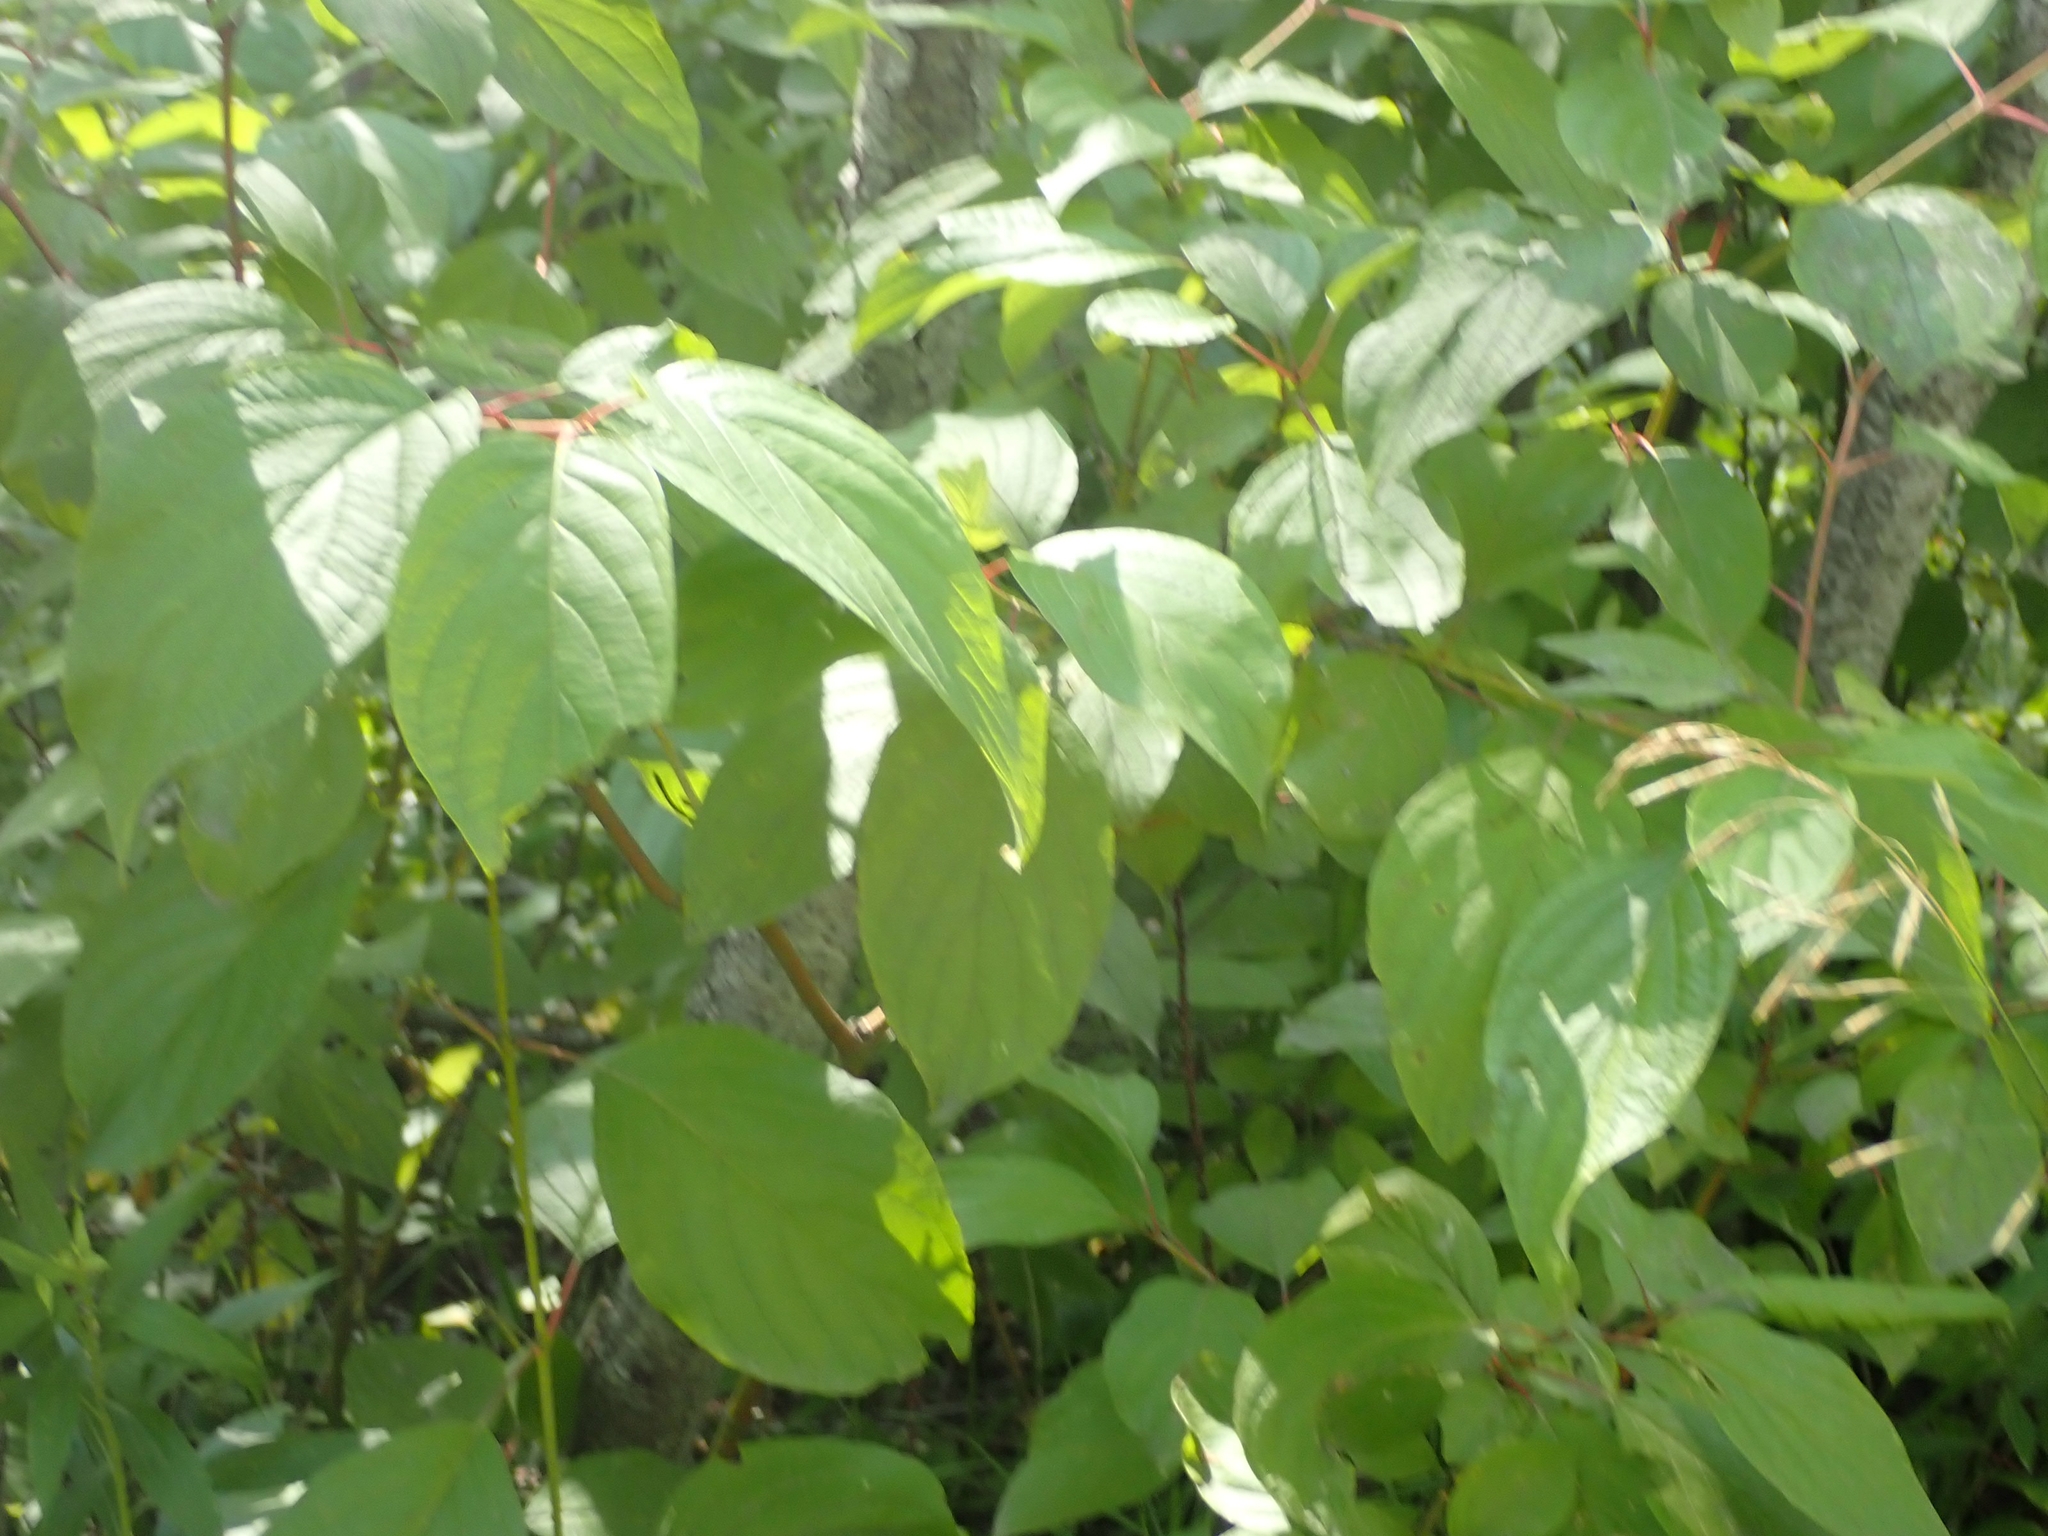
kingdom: Plantae
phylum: Tracheophyta
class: Magnoliopsida
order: Cornales
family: Cornaceae
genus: Cornus
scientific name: Cornus sericea
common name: Red-osier dogwood
